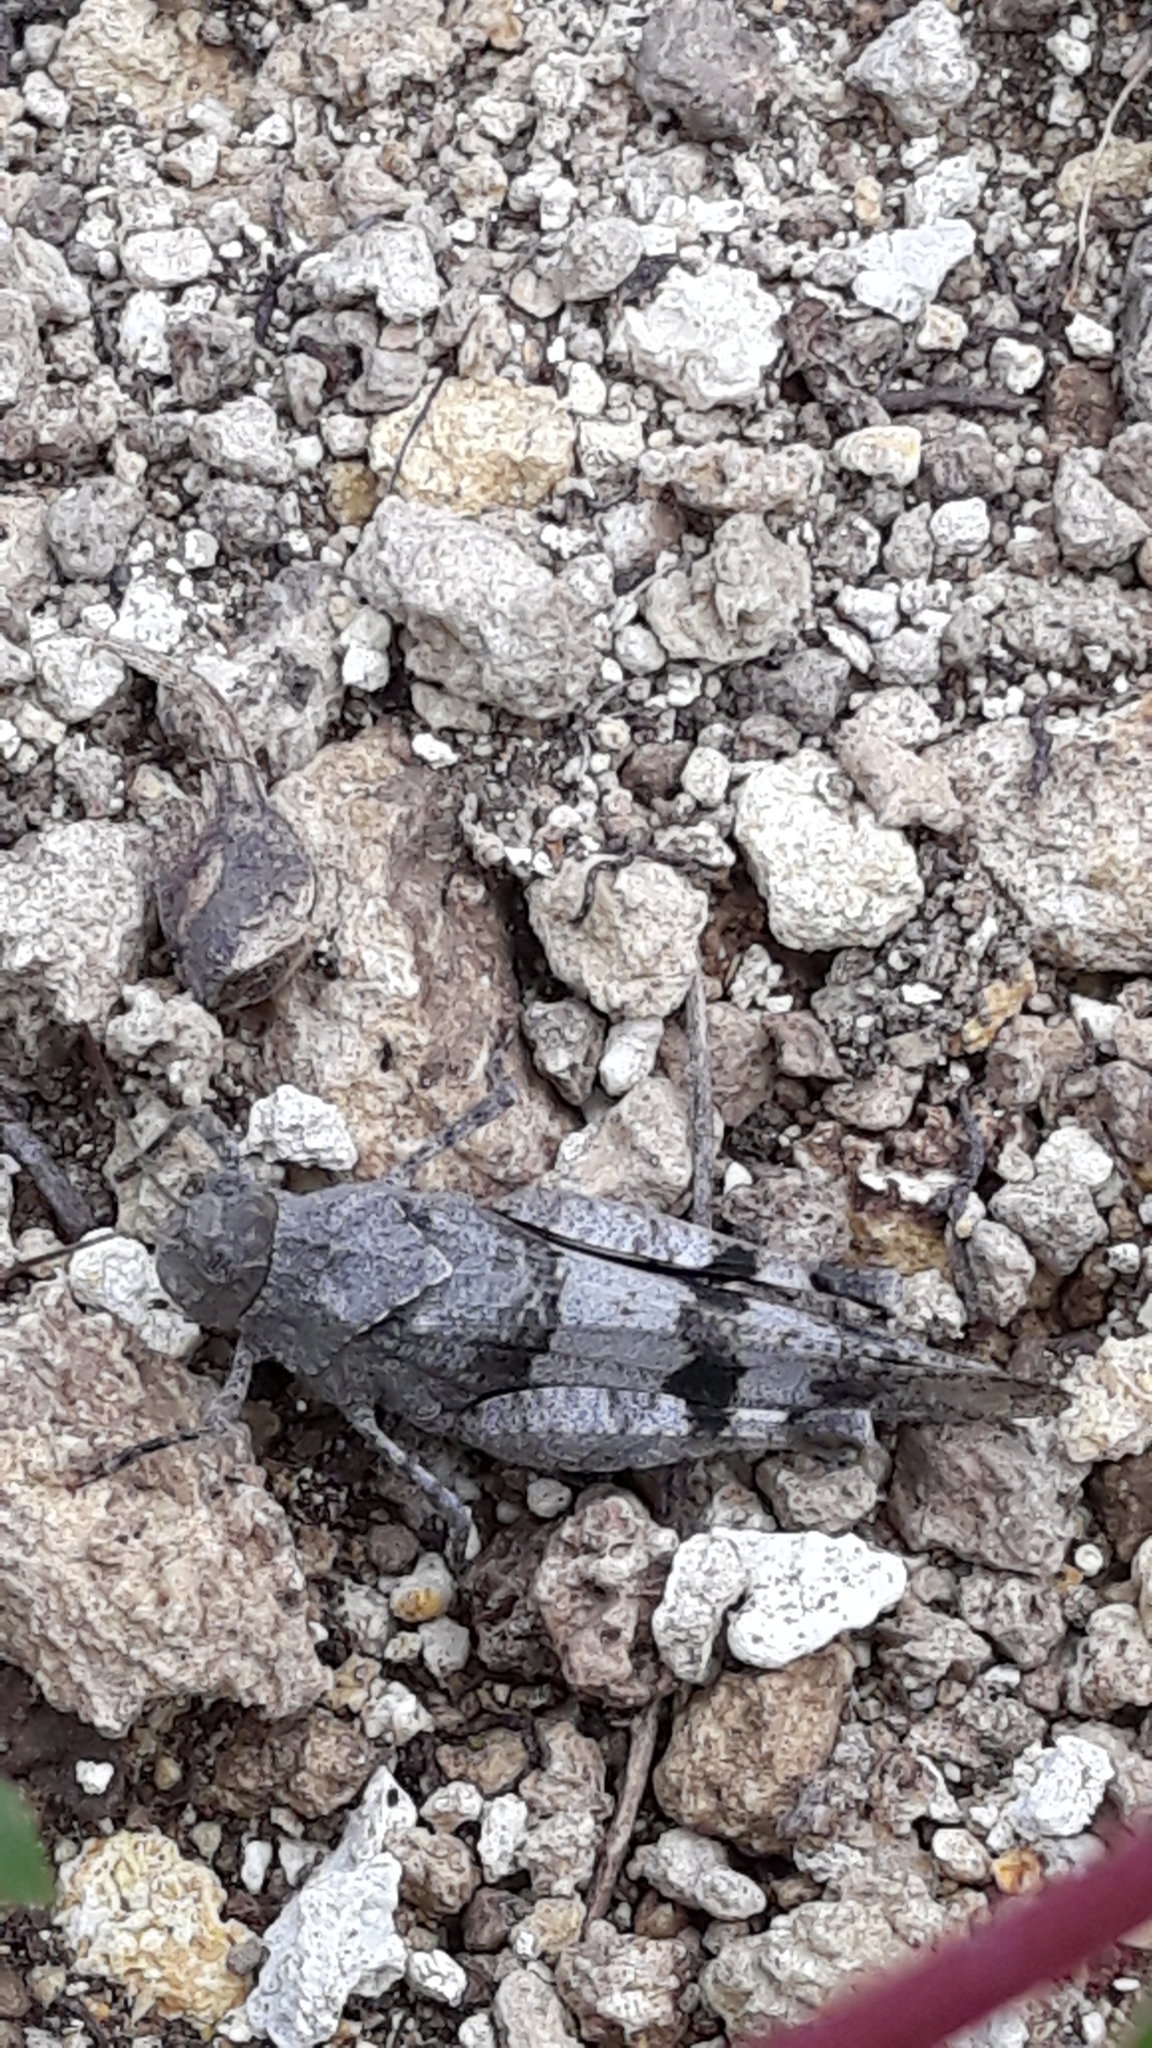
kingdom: Animalia
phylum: Arthropoda
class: Insecta
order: Orthoptera
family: Acrididae
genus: Oedipoda
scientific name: Oedipoda caerulescens
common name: Blue-winged grasshopper
